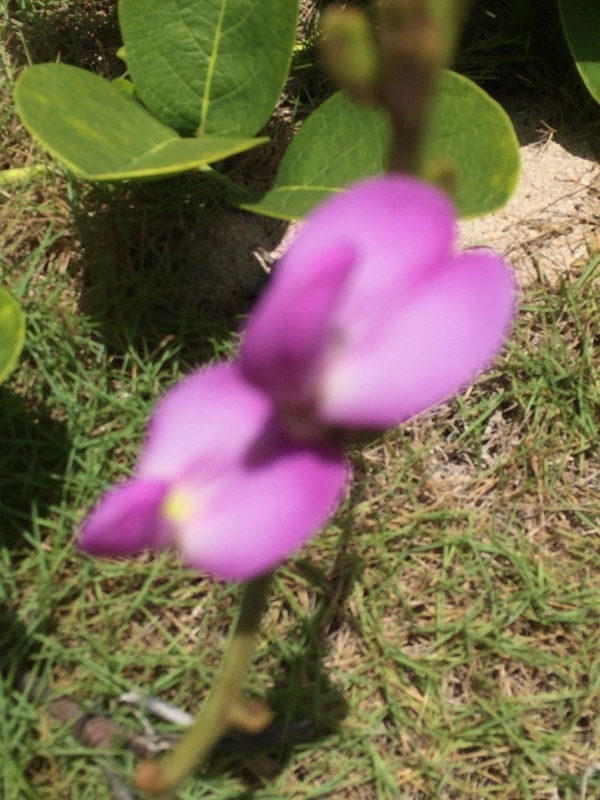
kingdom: Plantae
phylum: Tracheophyta
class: Magnoliopsida
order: Fabales
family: Fabaceae
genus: Canavalia
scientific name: Canavalia rosea
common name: Beach-bean
